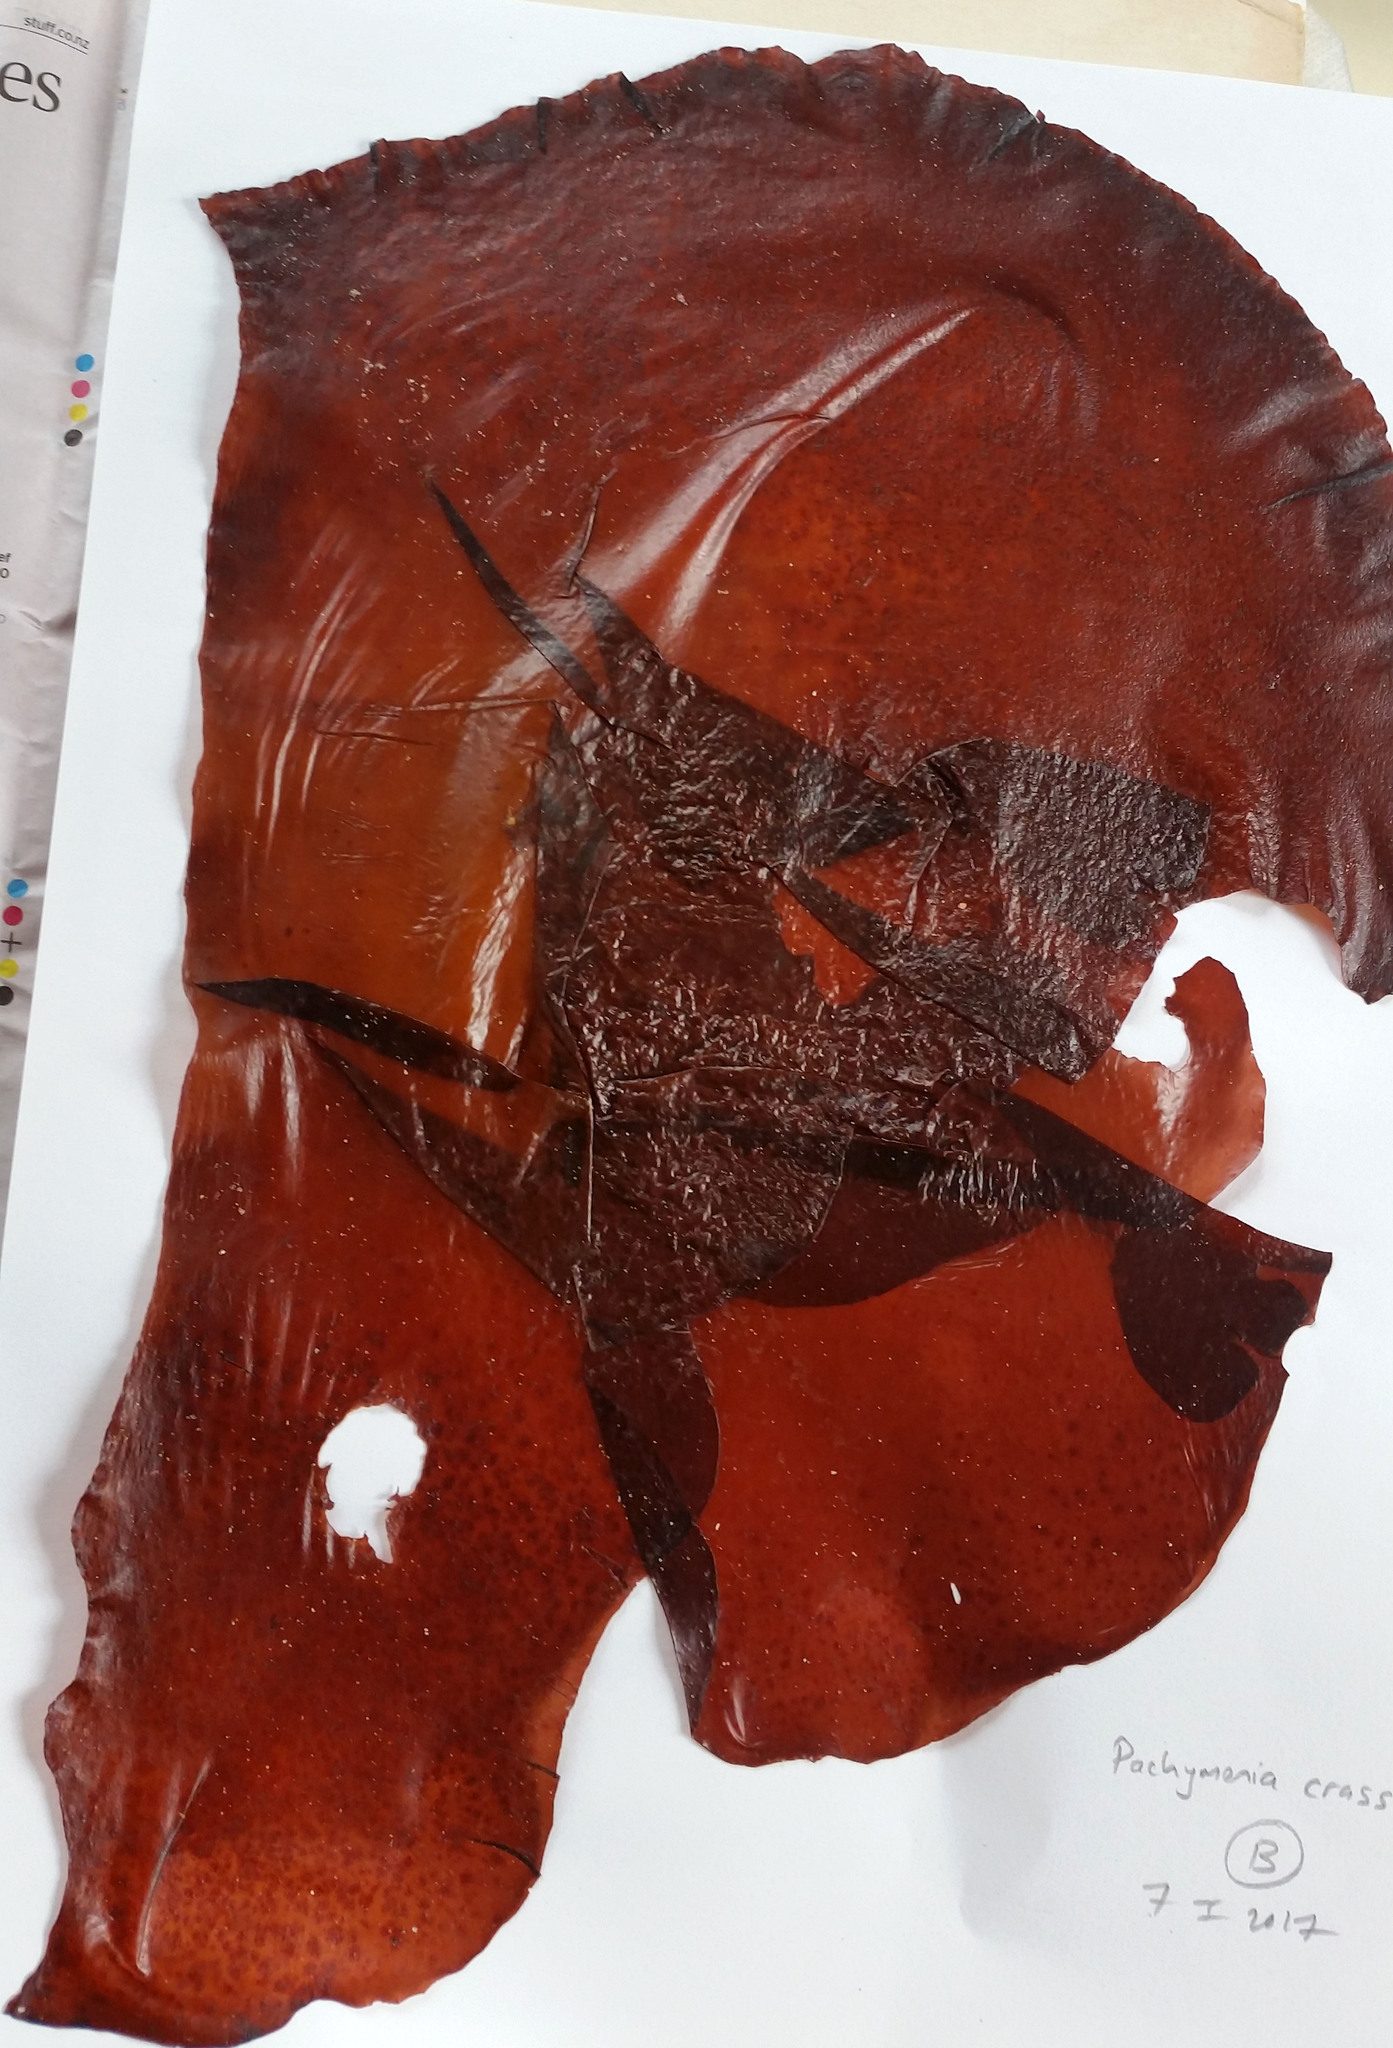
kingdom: Plantae
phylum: Rhodophyta
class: Florideophyceae
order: Halymeniales
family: Halymeniaceae
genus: Pachymenia
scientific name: Pachymenia laciniata
